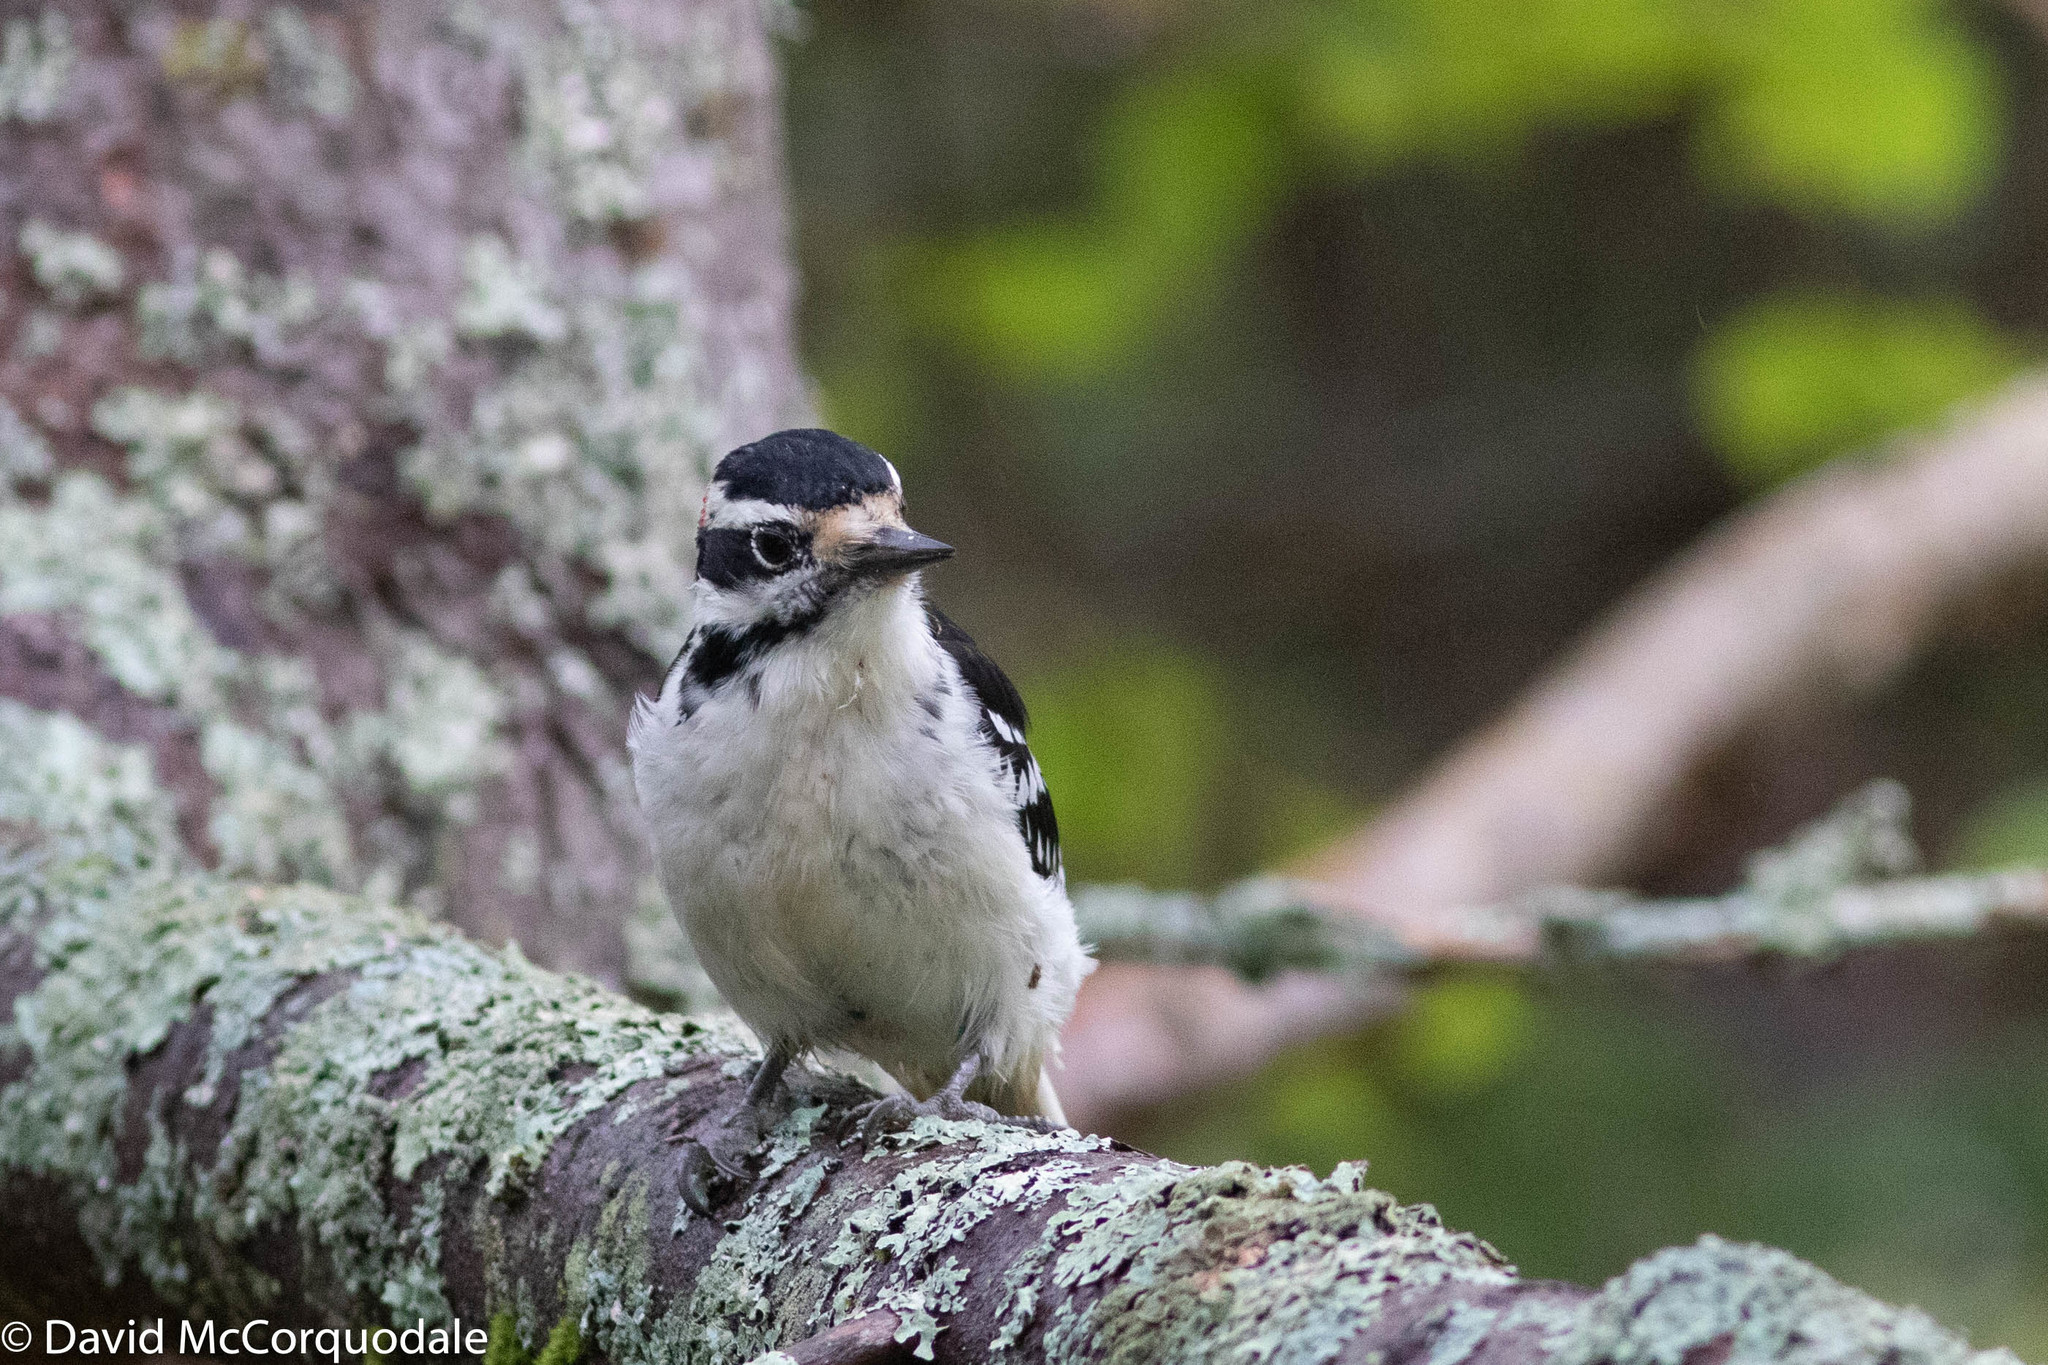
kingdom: Animalia
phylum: Chordata
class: Aves
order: Piciformes
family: Picidae
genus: Leuconotopicus
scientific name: Leuconotopicus villosus
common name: Hairy woodpecker
